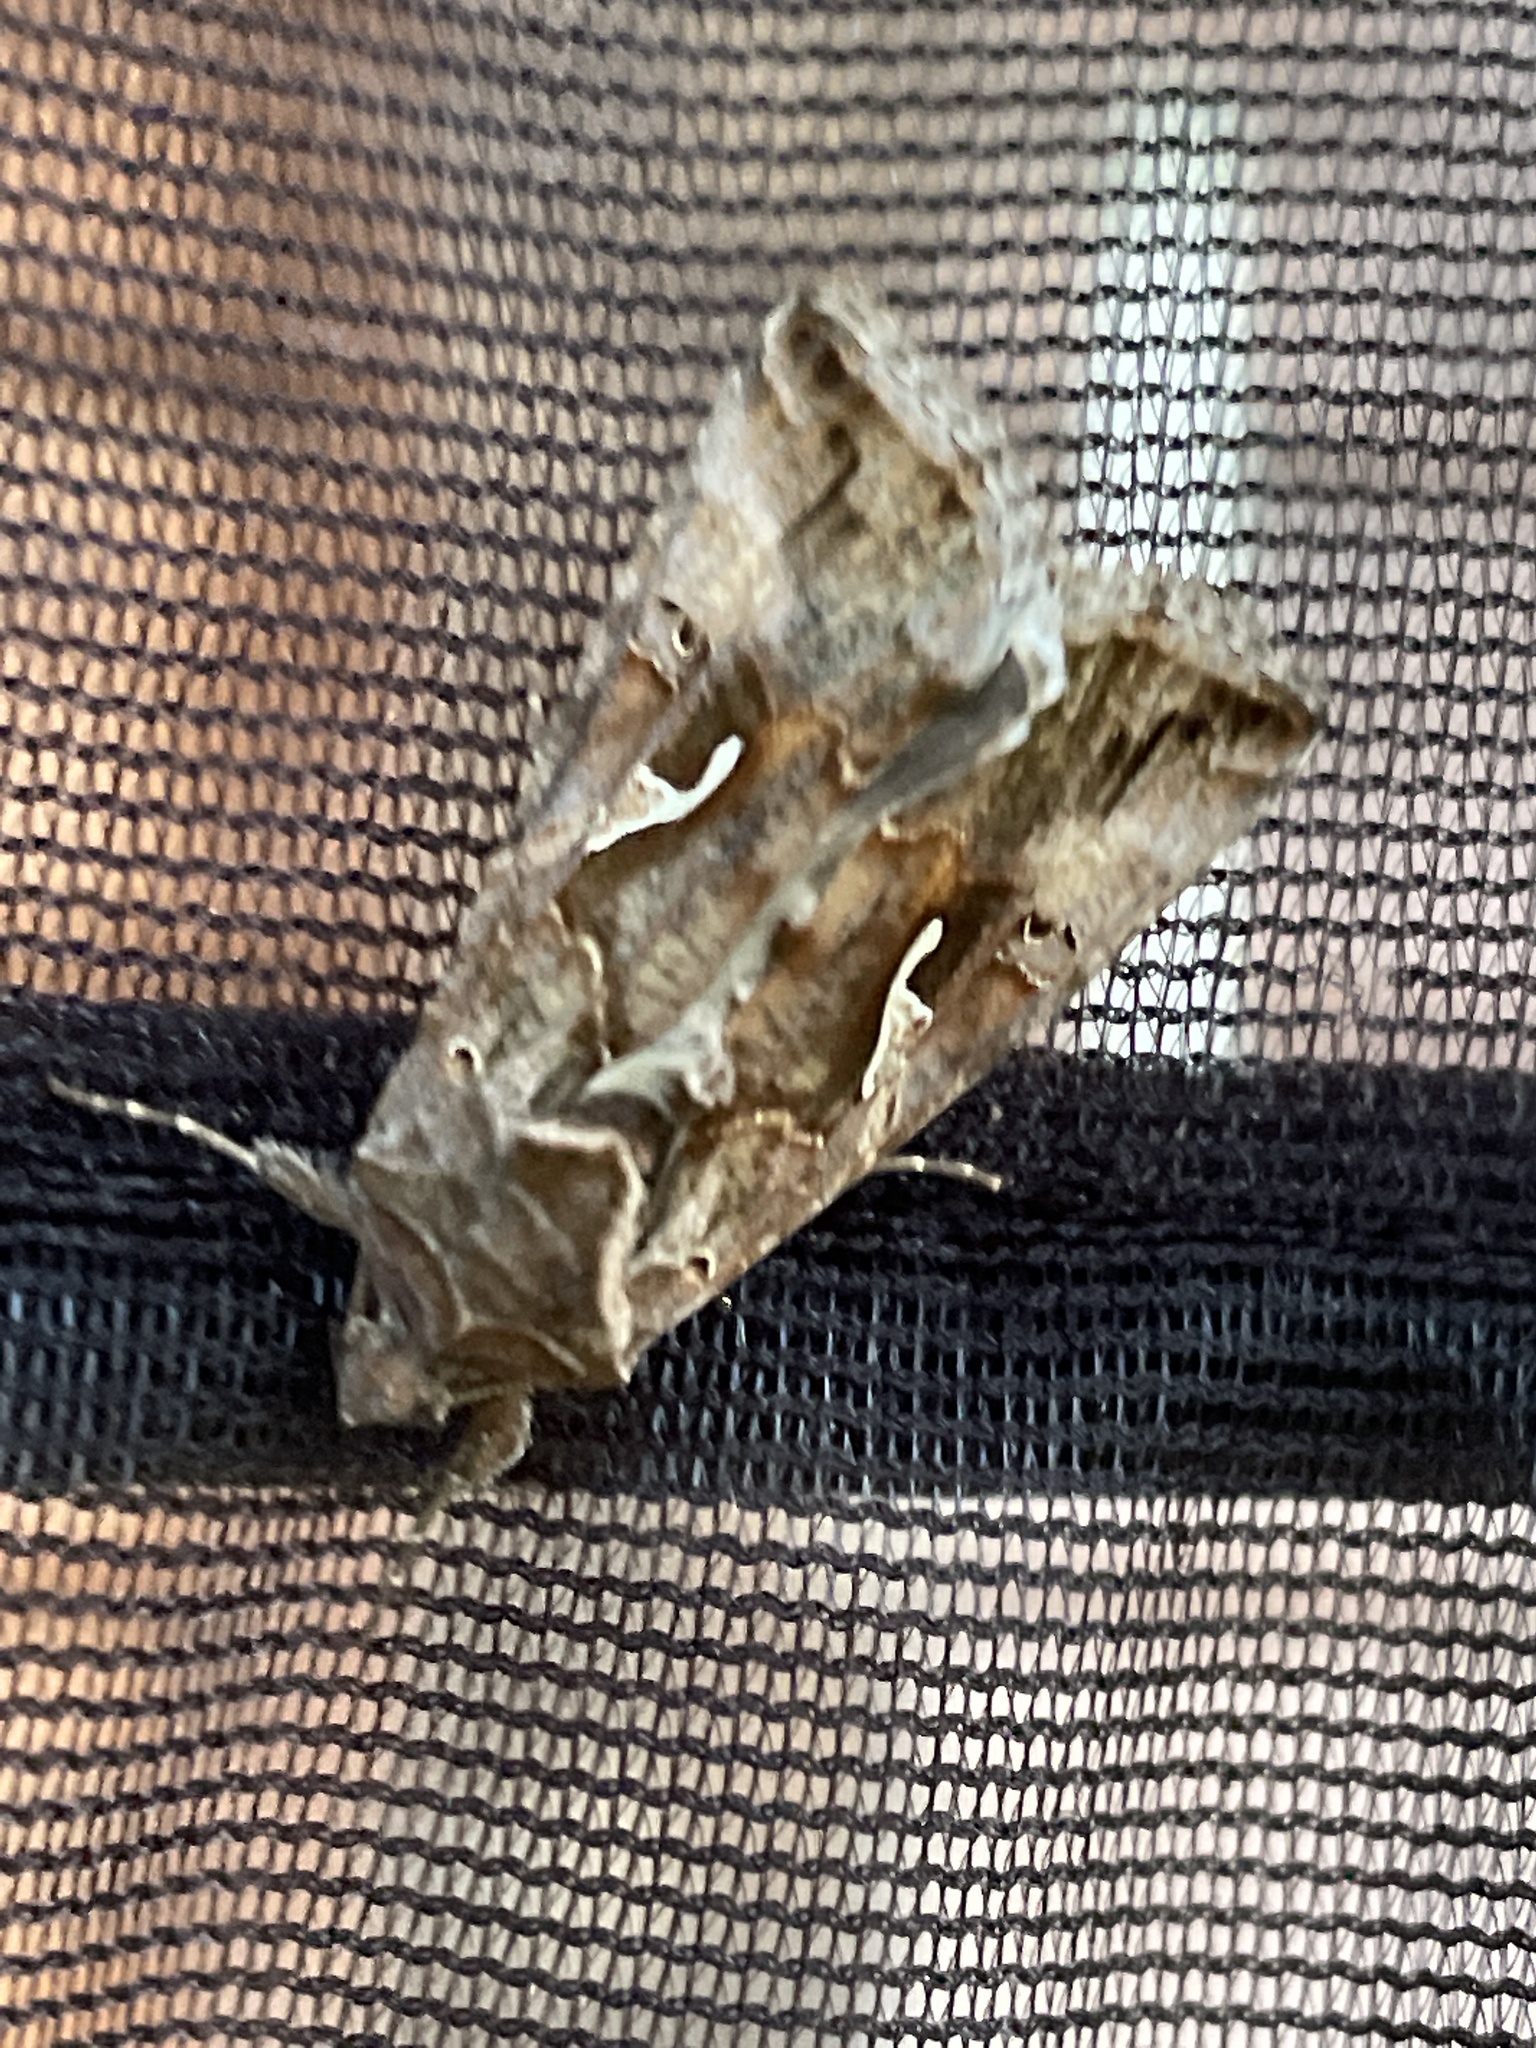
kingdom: Animalia
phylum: Arthropoda
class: Insecta
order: Lepidoptera
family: Noctuidae
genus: Autographa
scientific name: Autographa gamma
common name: Silver y
